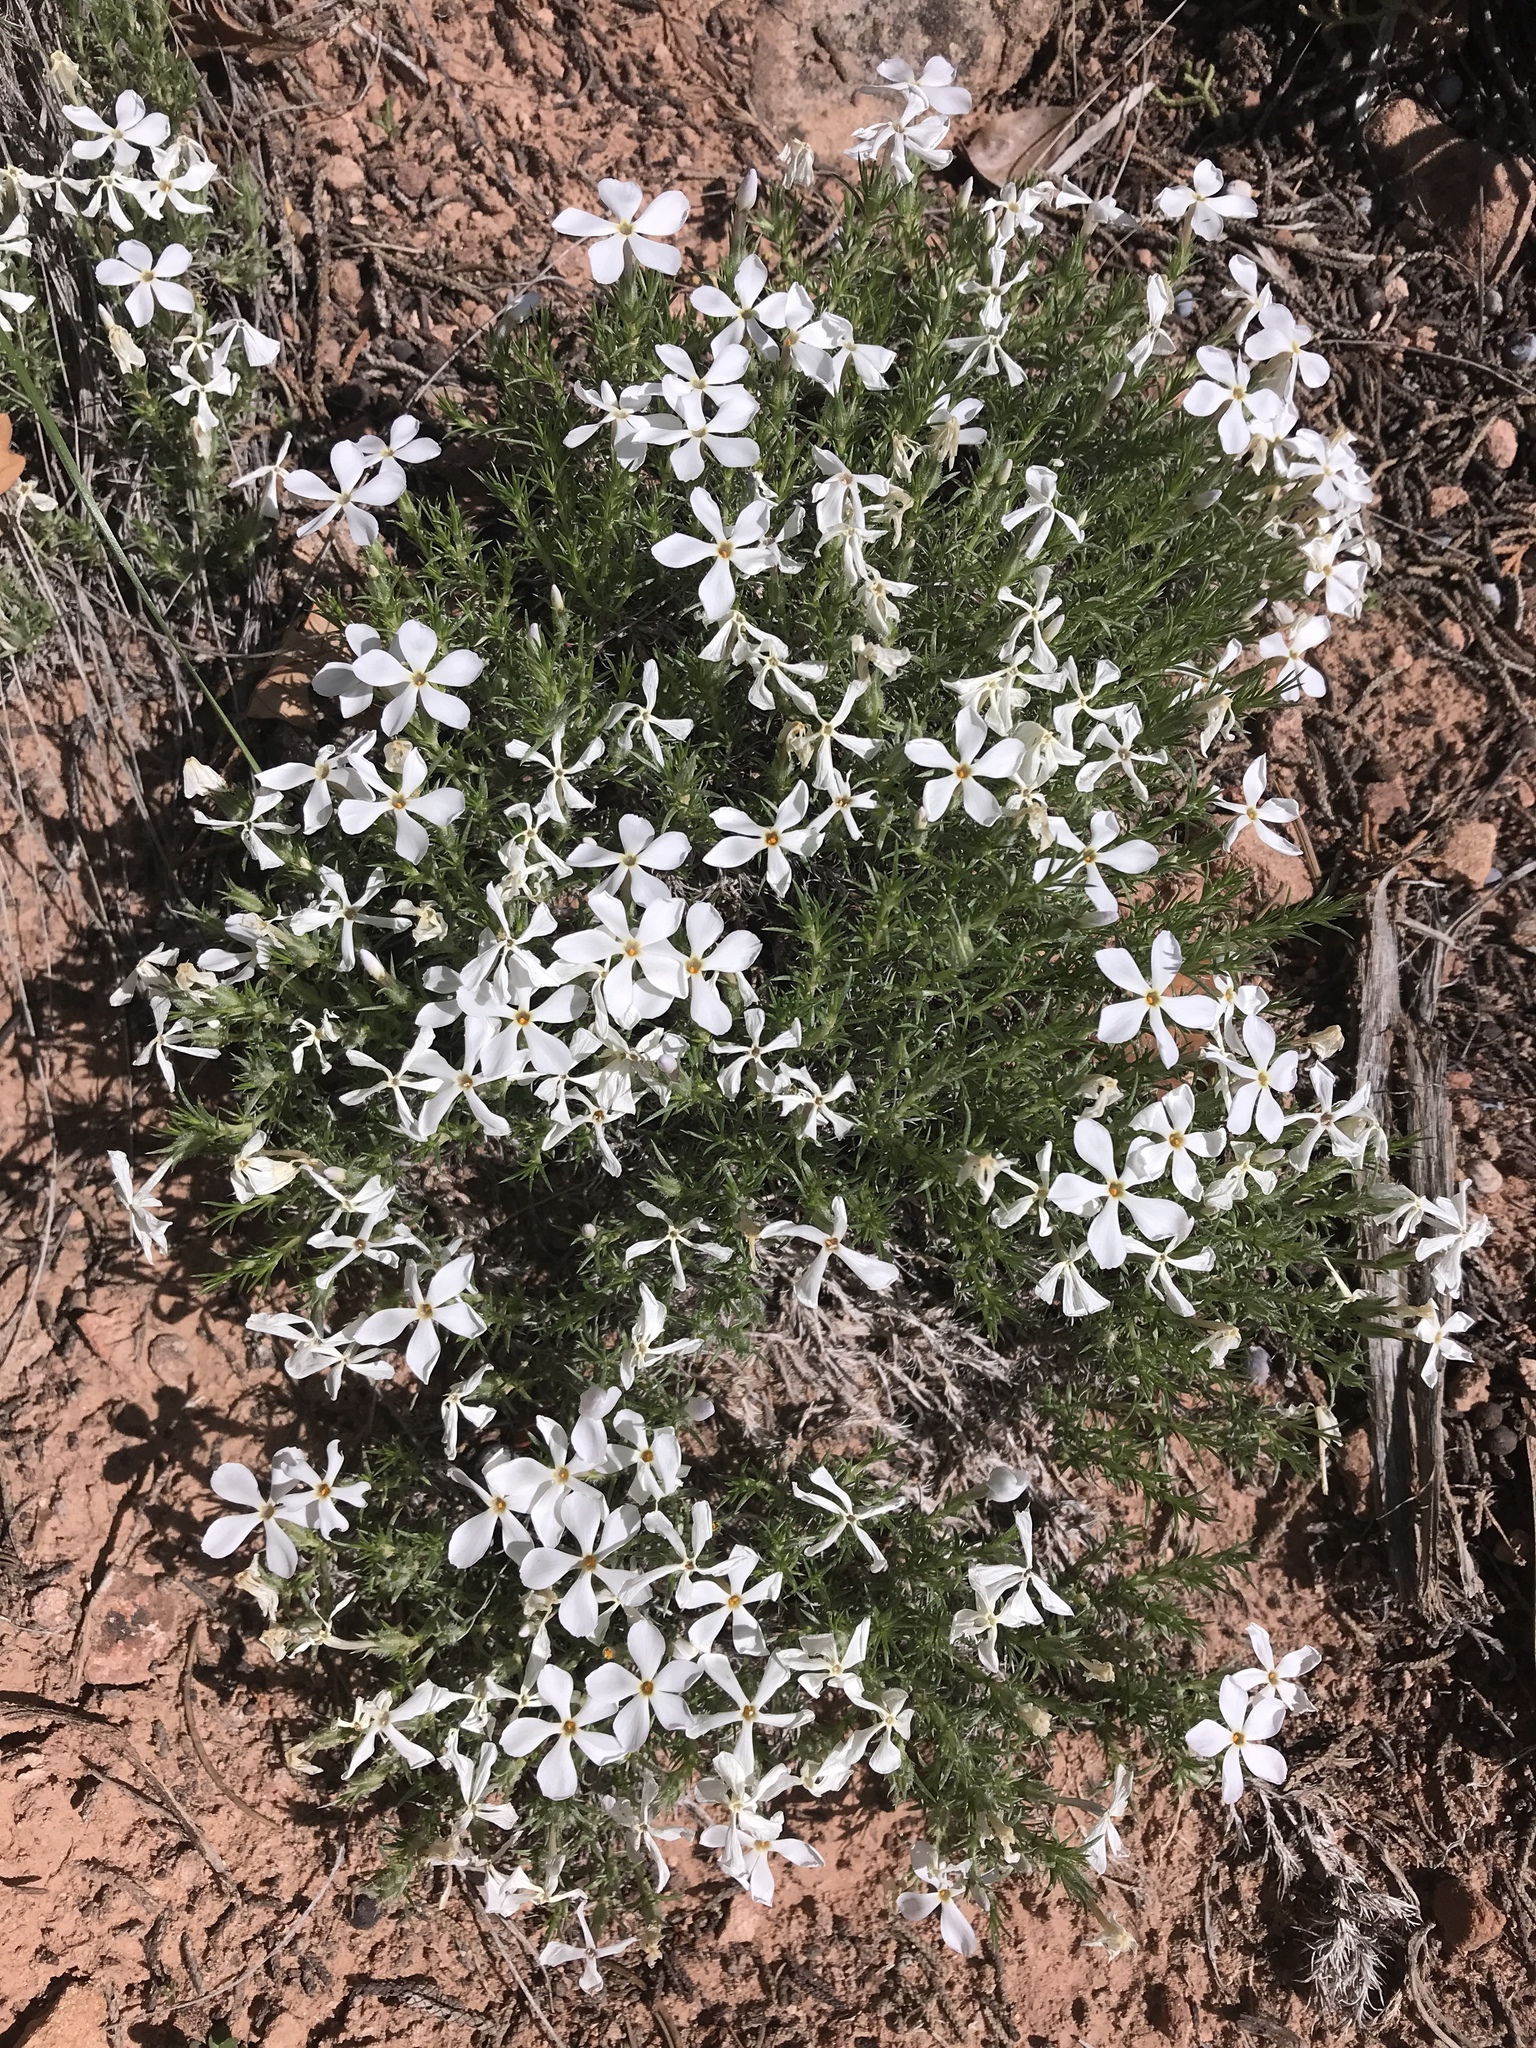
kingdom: Plantae
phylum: Tracheophyta
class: Magnoliopsida
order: Ericales
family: Polemoniaceae
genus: Phlox
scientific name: Phlox hoodii
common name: Moss phlox
